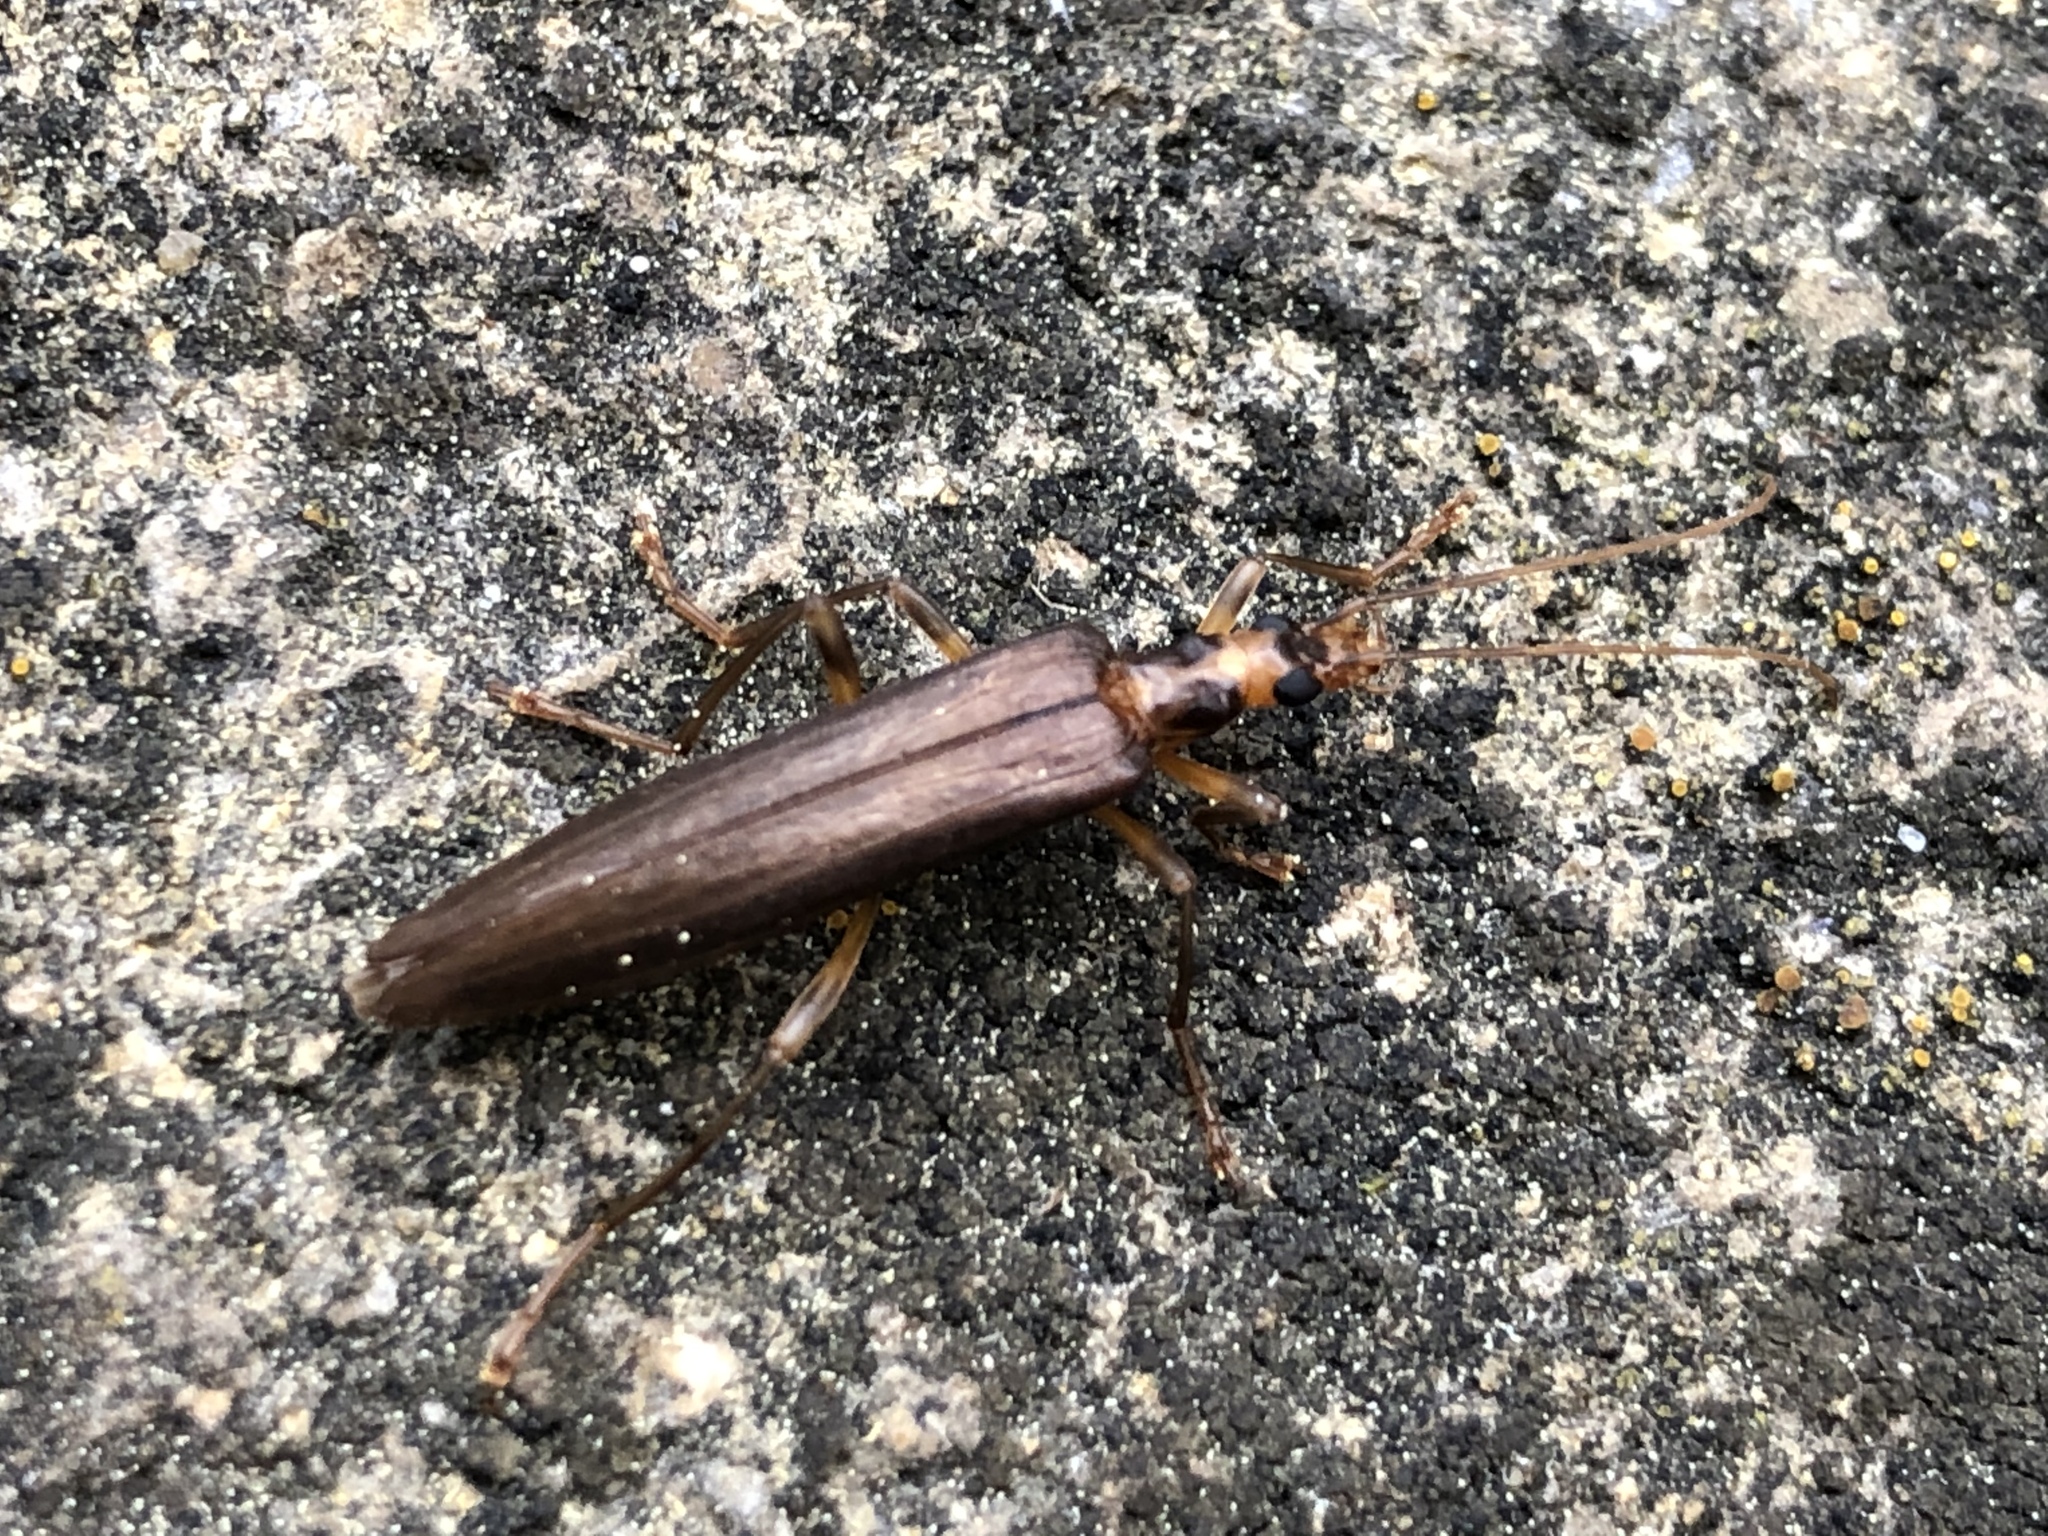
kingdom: Animalia
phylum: Arthropoda
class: Insecta
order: Coleoptera
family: Oedemeridae
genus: Oedemera
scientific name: Oedemera femoralis
